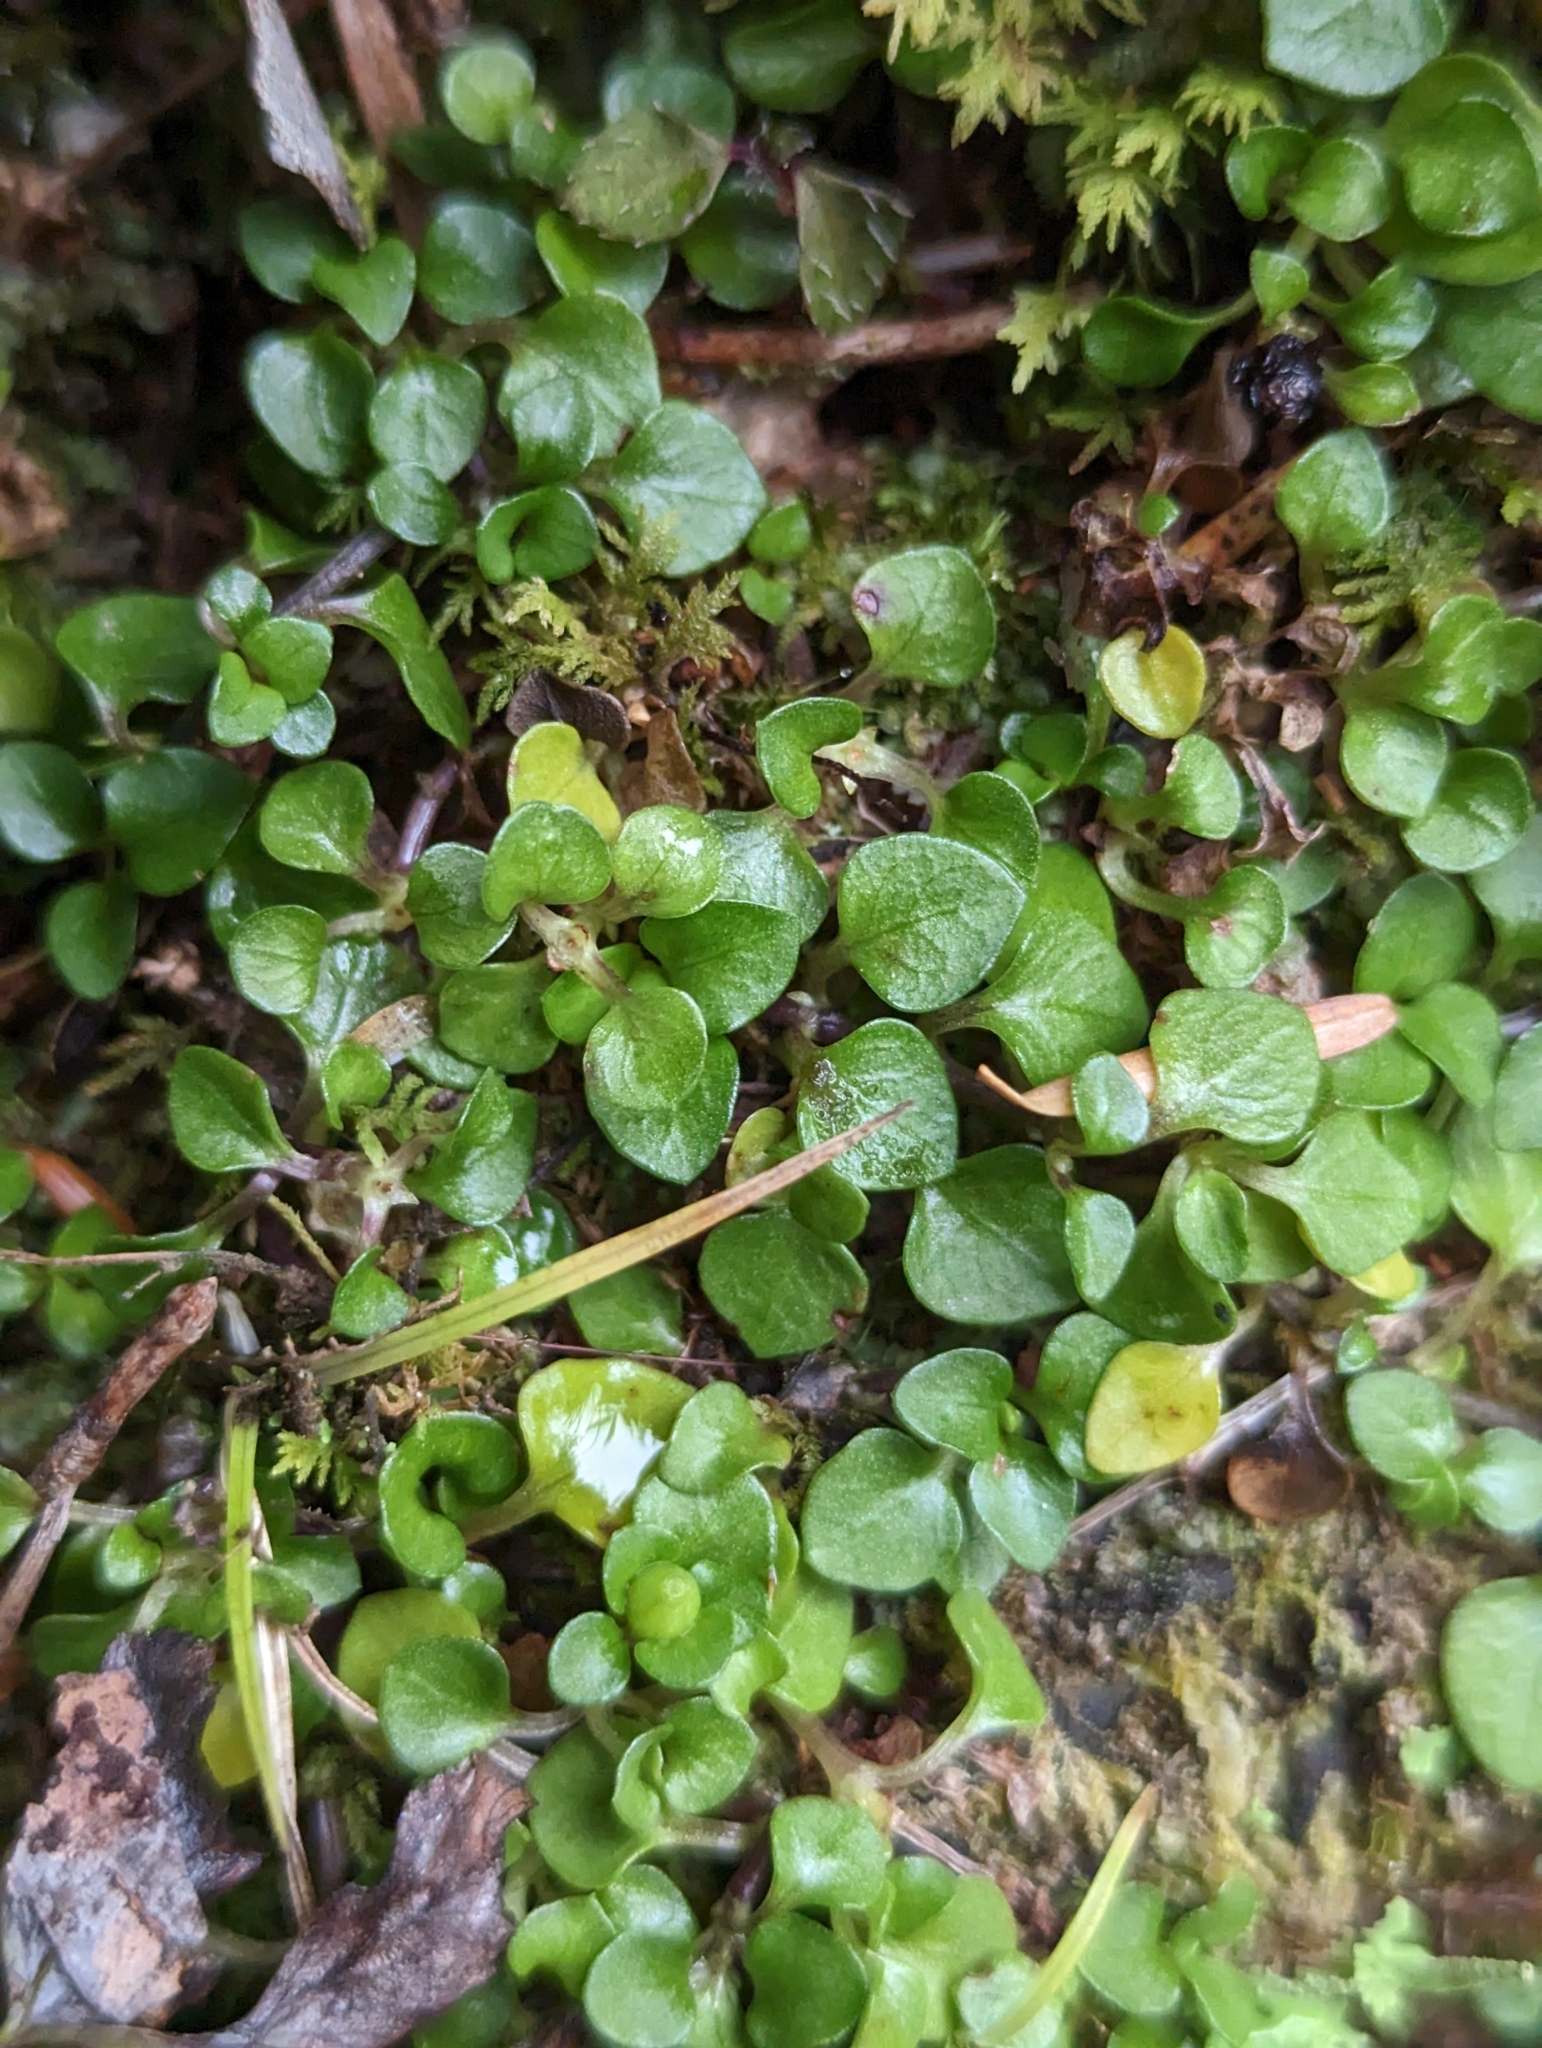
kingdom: Plantae
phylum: Tracheophyta
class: Magnoliopsida
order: Gentianales
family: Rubiaceae
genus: Nertera
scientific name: Nertera nigricarpa
